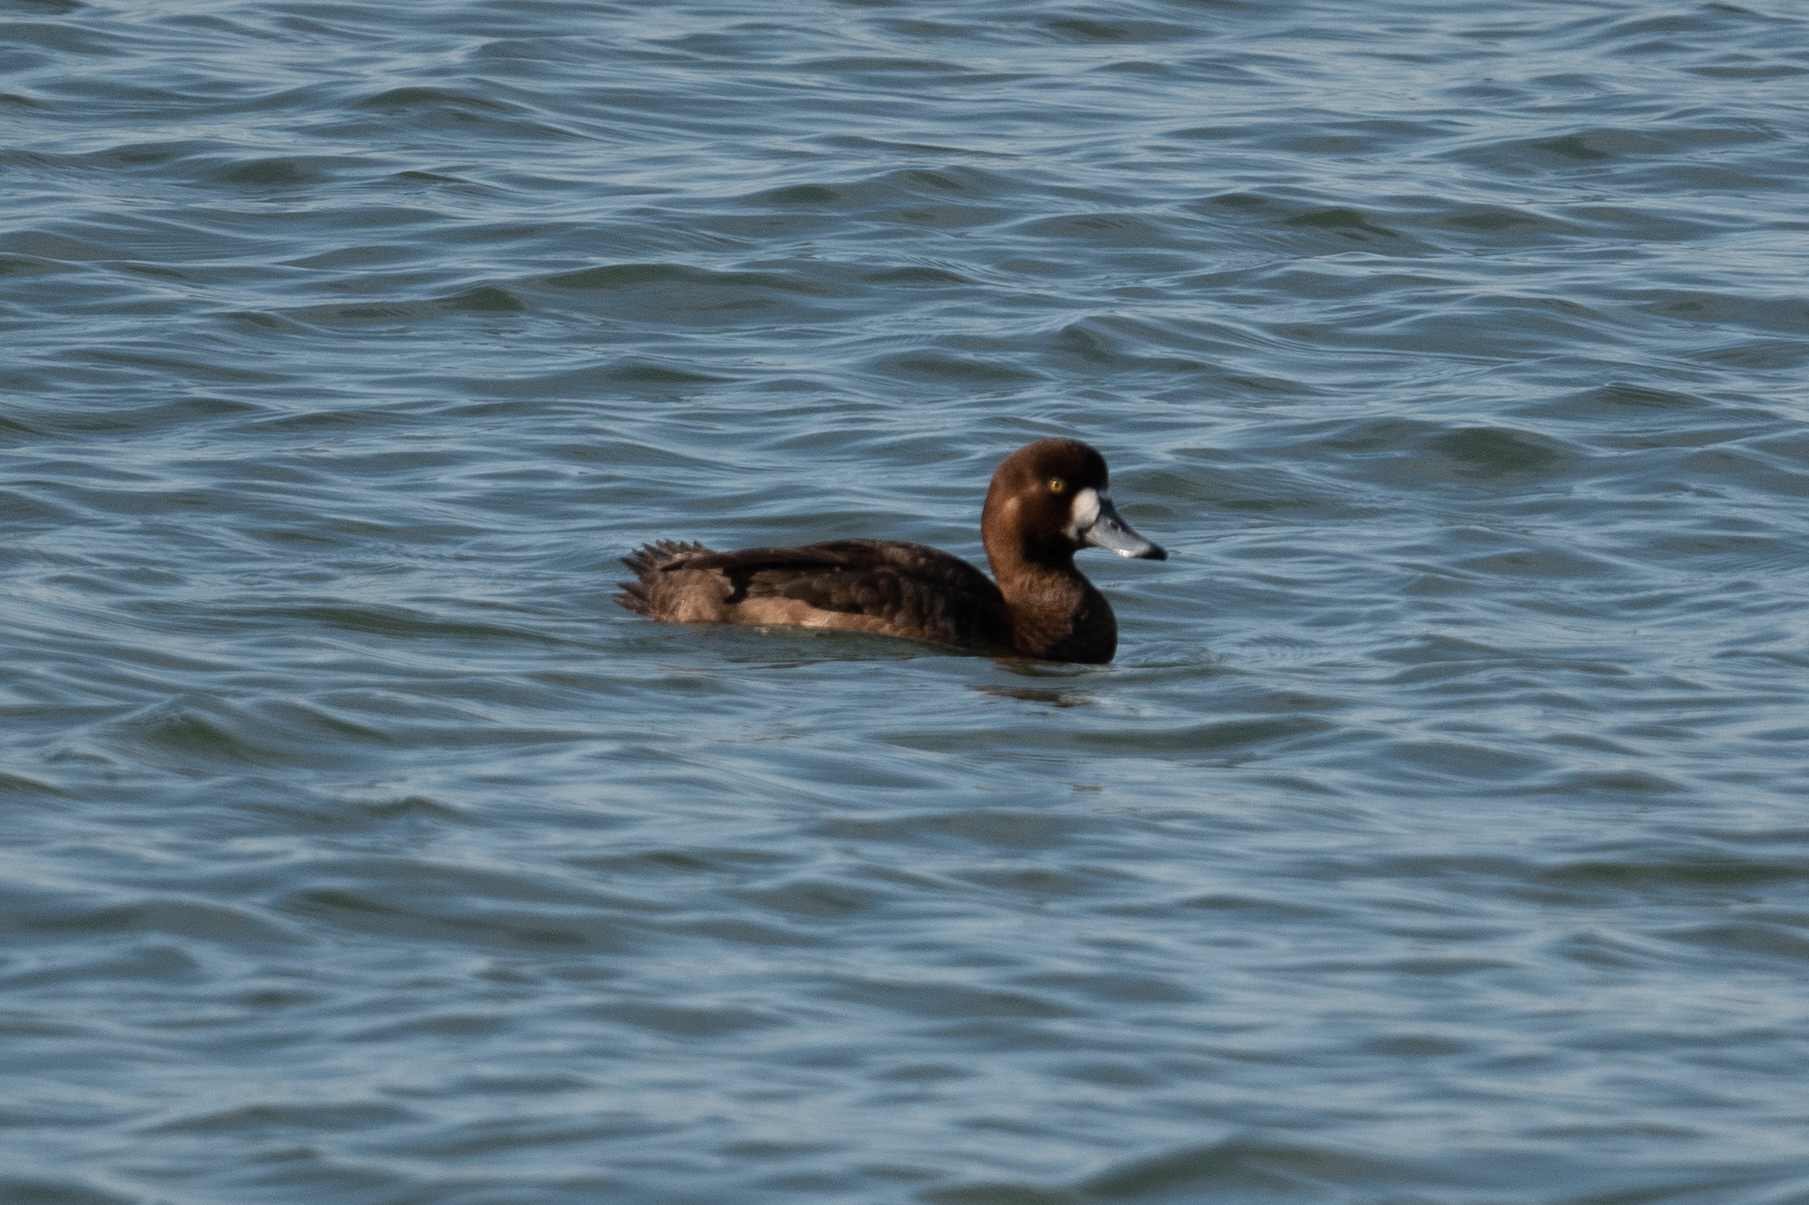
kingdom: Animalia
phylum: Chordata
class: Aves
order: Anseriformes
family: Anatidae
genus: Aythya
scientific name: Aythya marila
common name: Greater scaup
